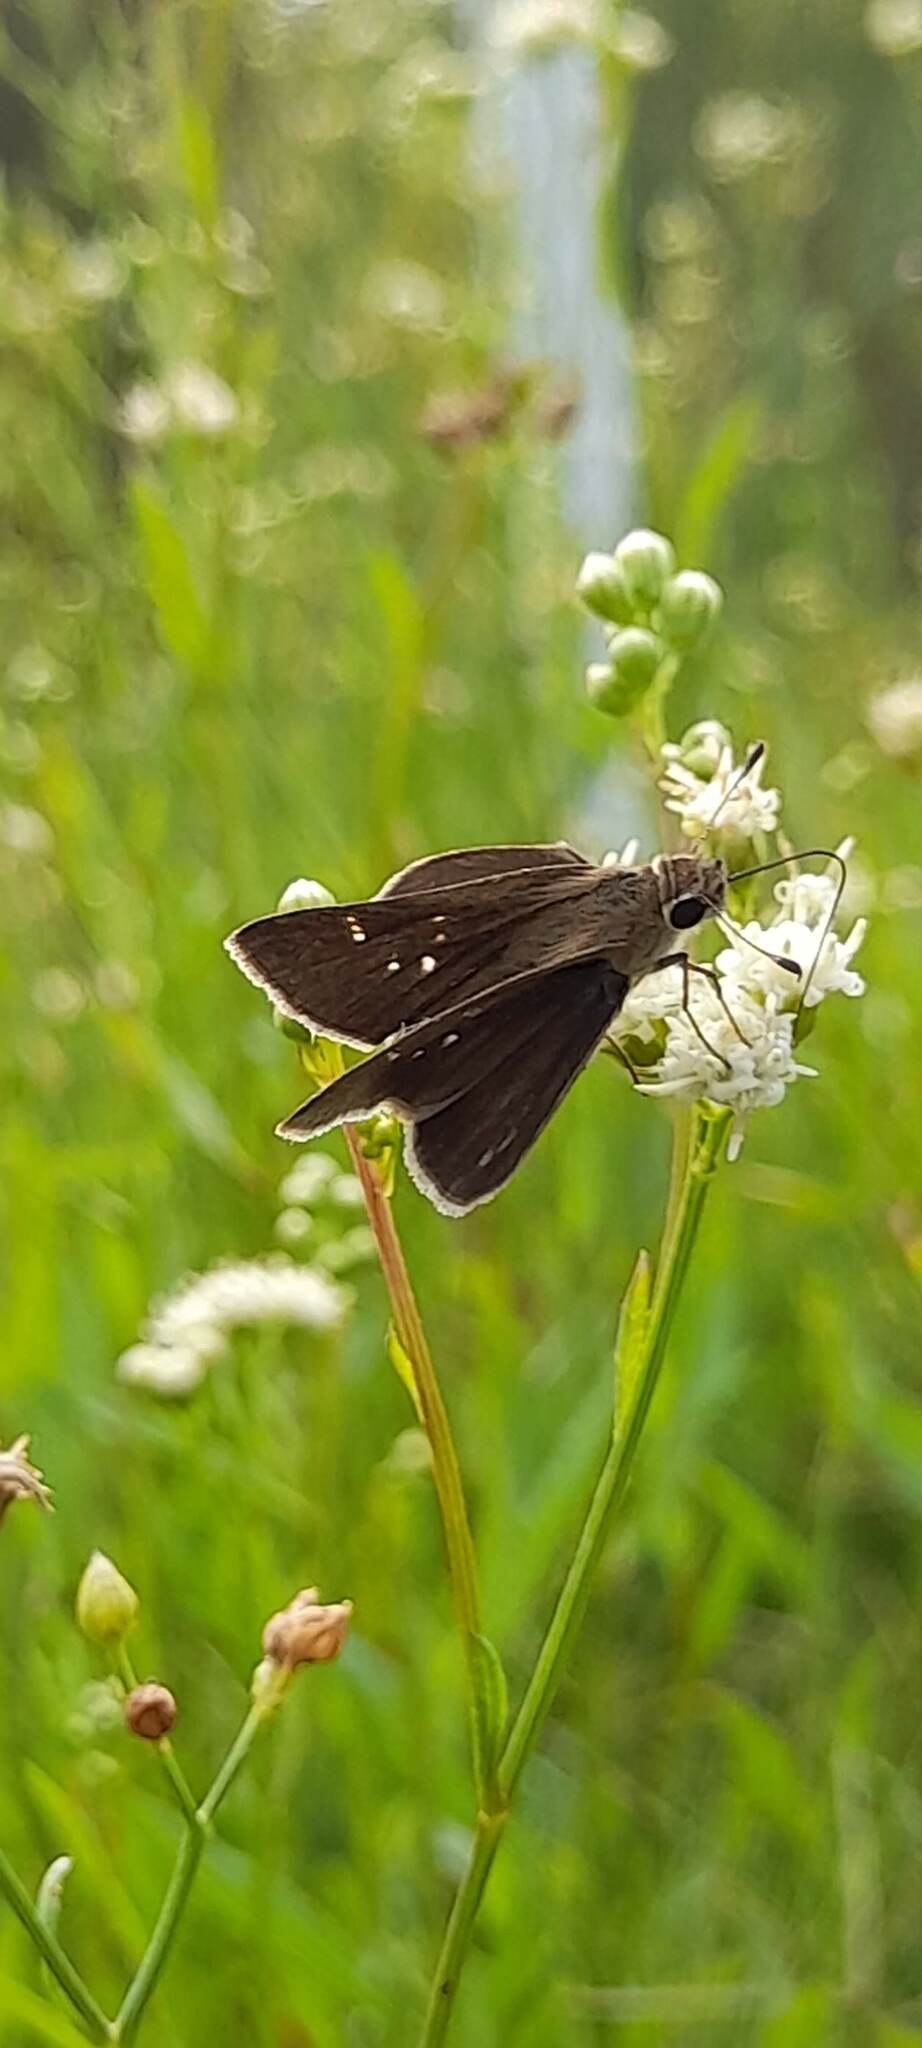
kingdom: Animalia
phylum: Arthropoda
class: Insecta
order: Lepidoptera
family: Hesperiidae
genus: Lerodea
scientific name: Lerodea eufala
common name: Eufala skipper
